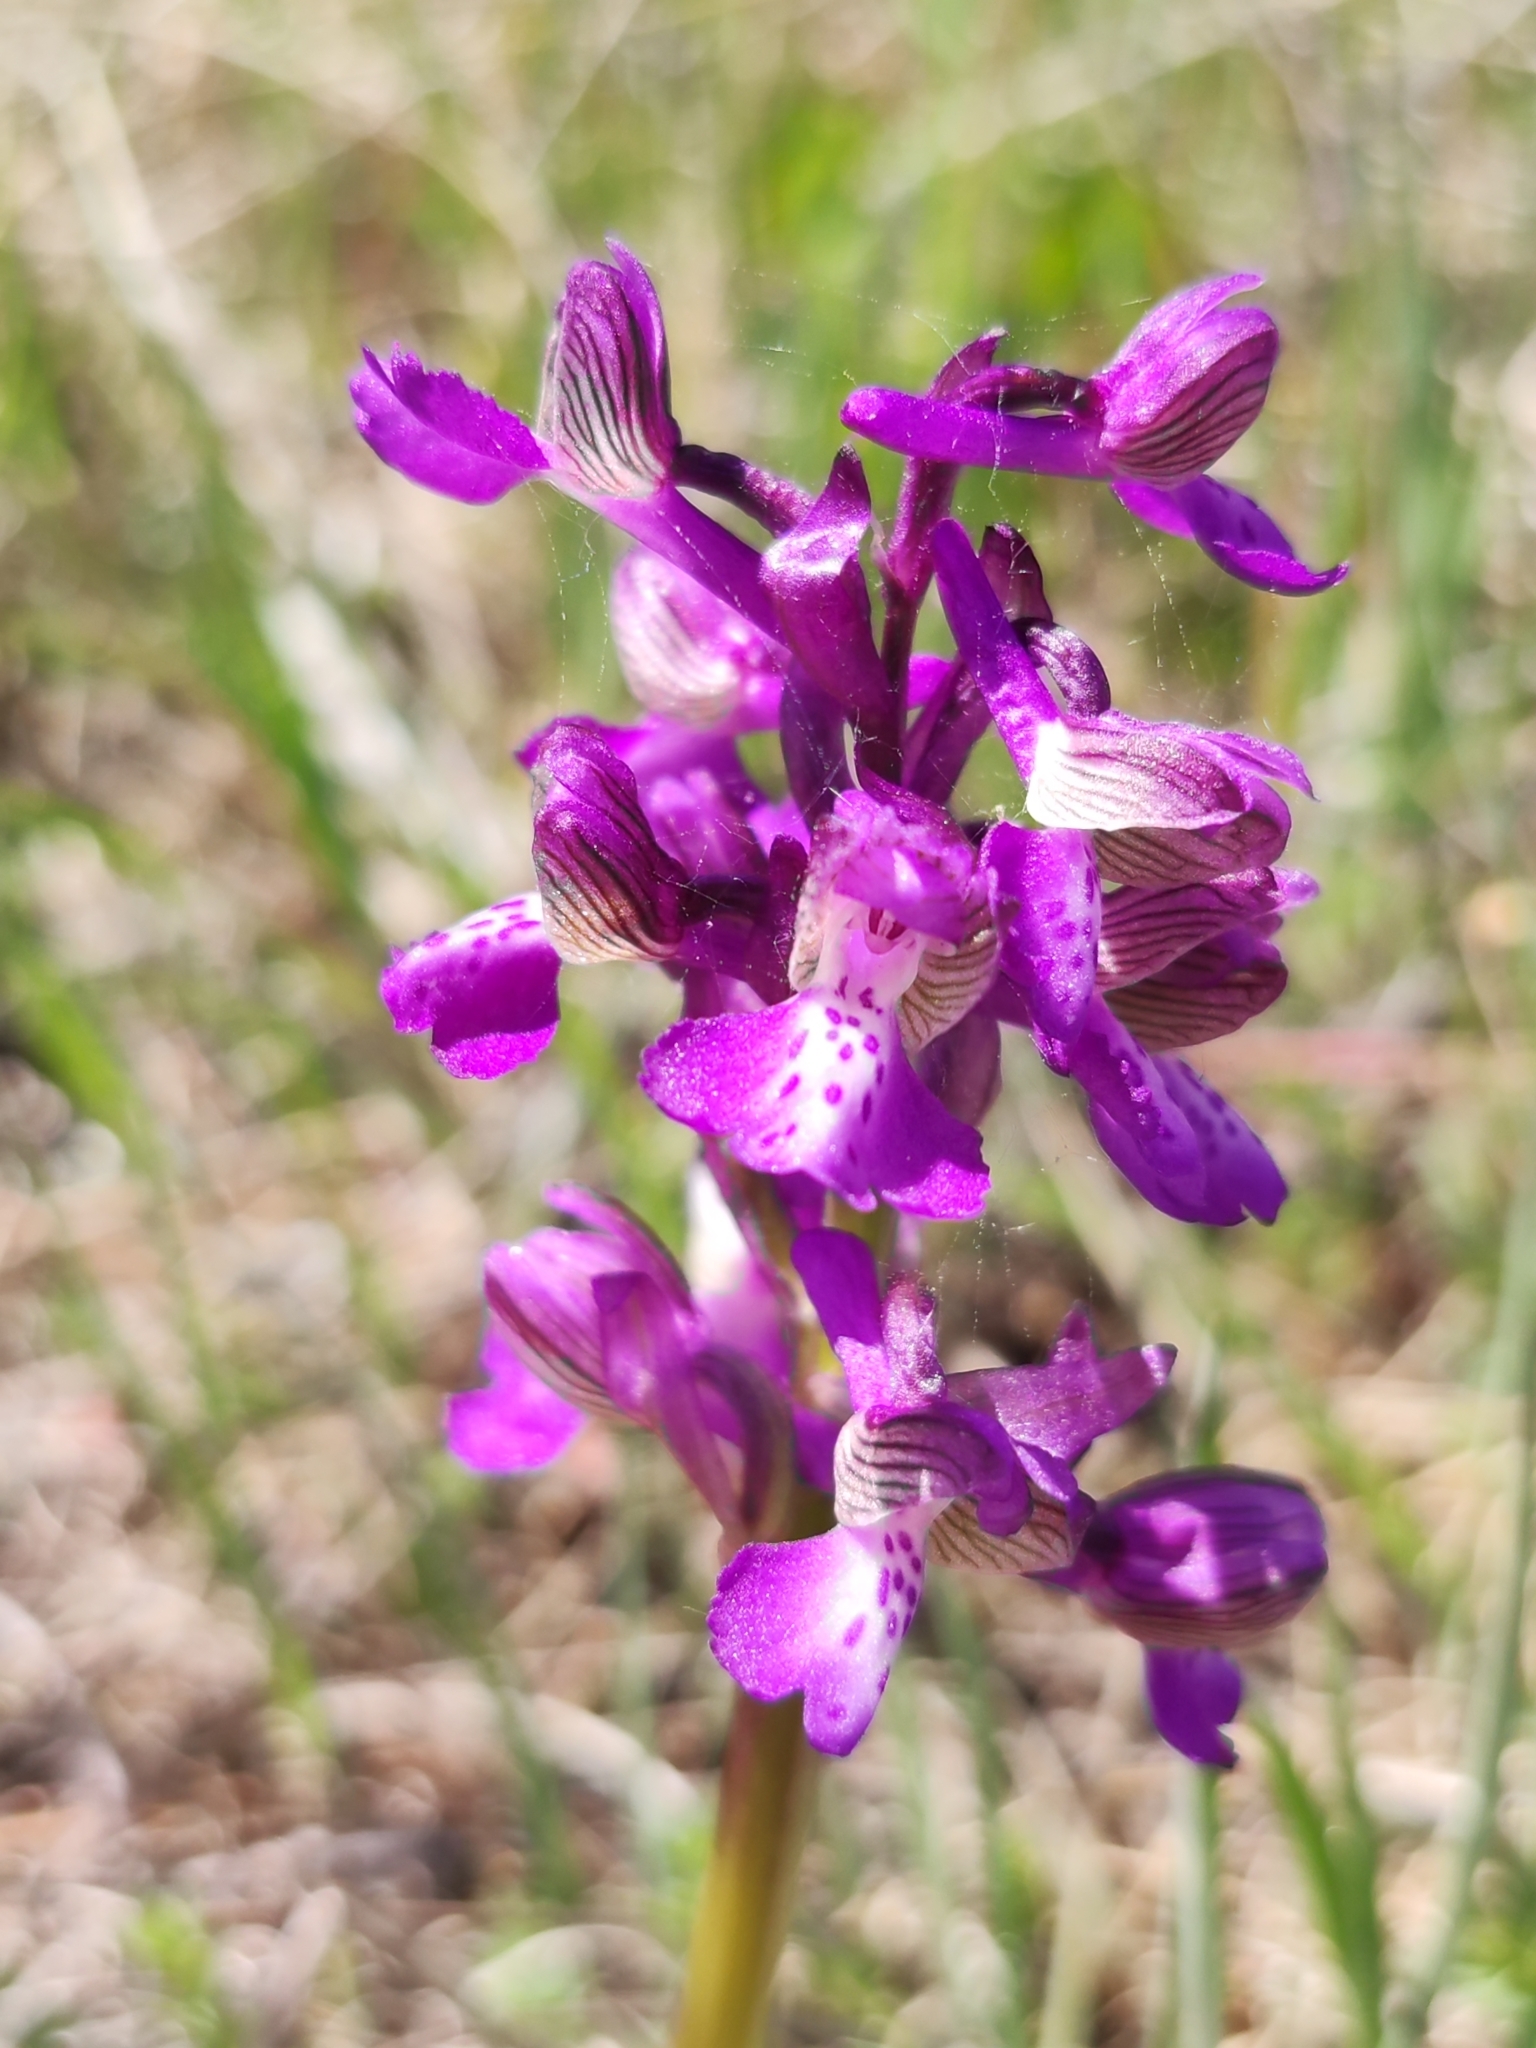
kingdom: Plantae
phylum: Tracheophyta
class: Liliopsida
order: Asparagales
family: Orchidaceae
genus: Anacamptis
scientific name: Anacamptis morio
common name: Green-winged orchid
